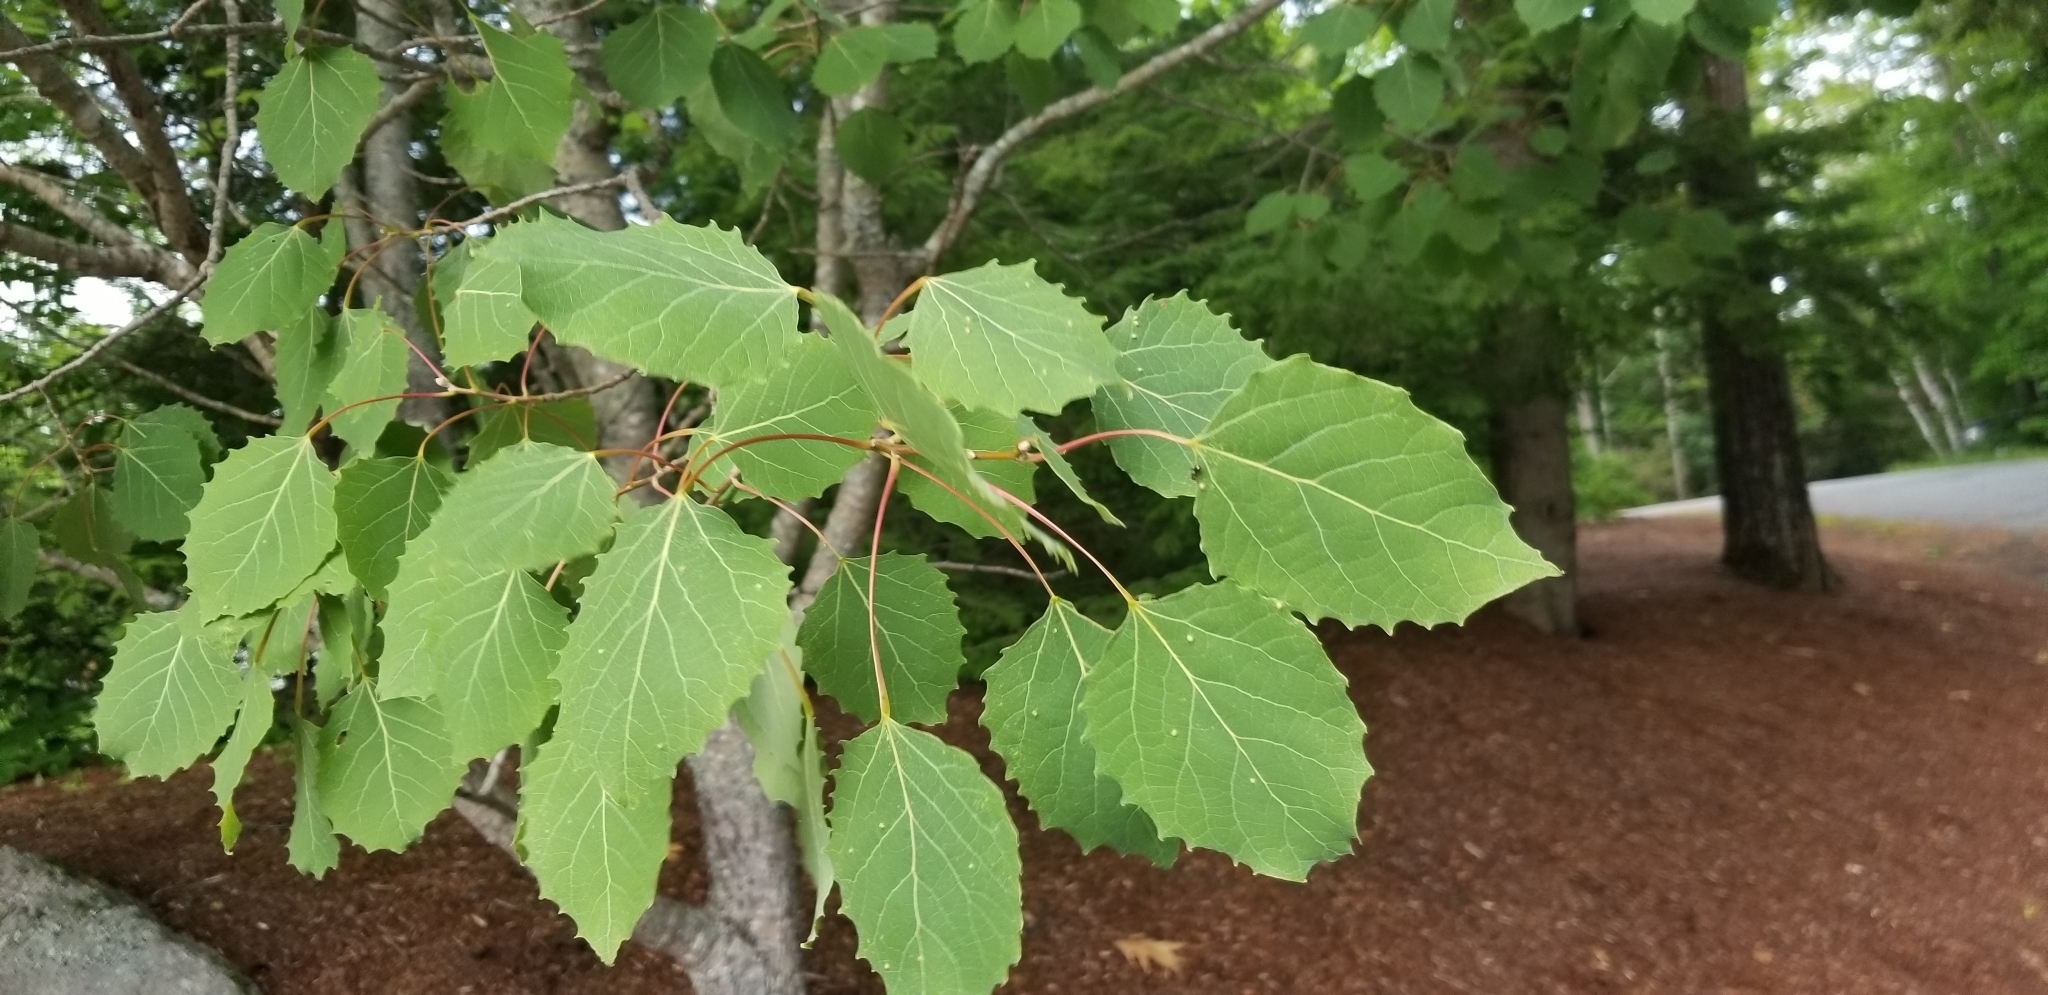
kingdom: Plantae
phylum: Tracheophyta
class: Magnoliopsida
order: Malpighiales
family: Salicaceae
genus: Populus
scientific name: Populus grandidentata
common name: Bigtooth aspen
